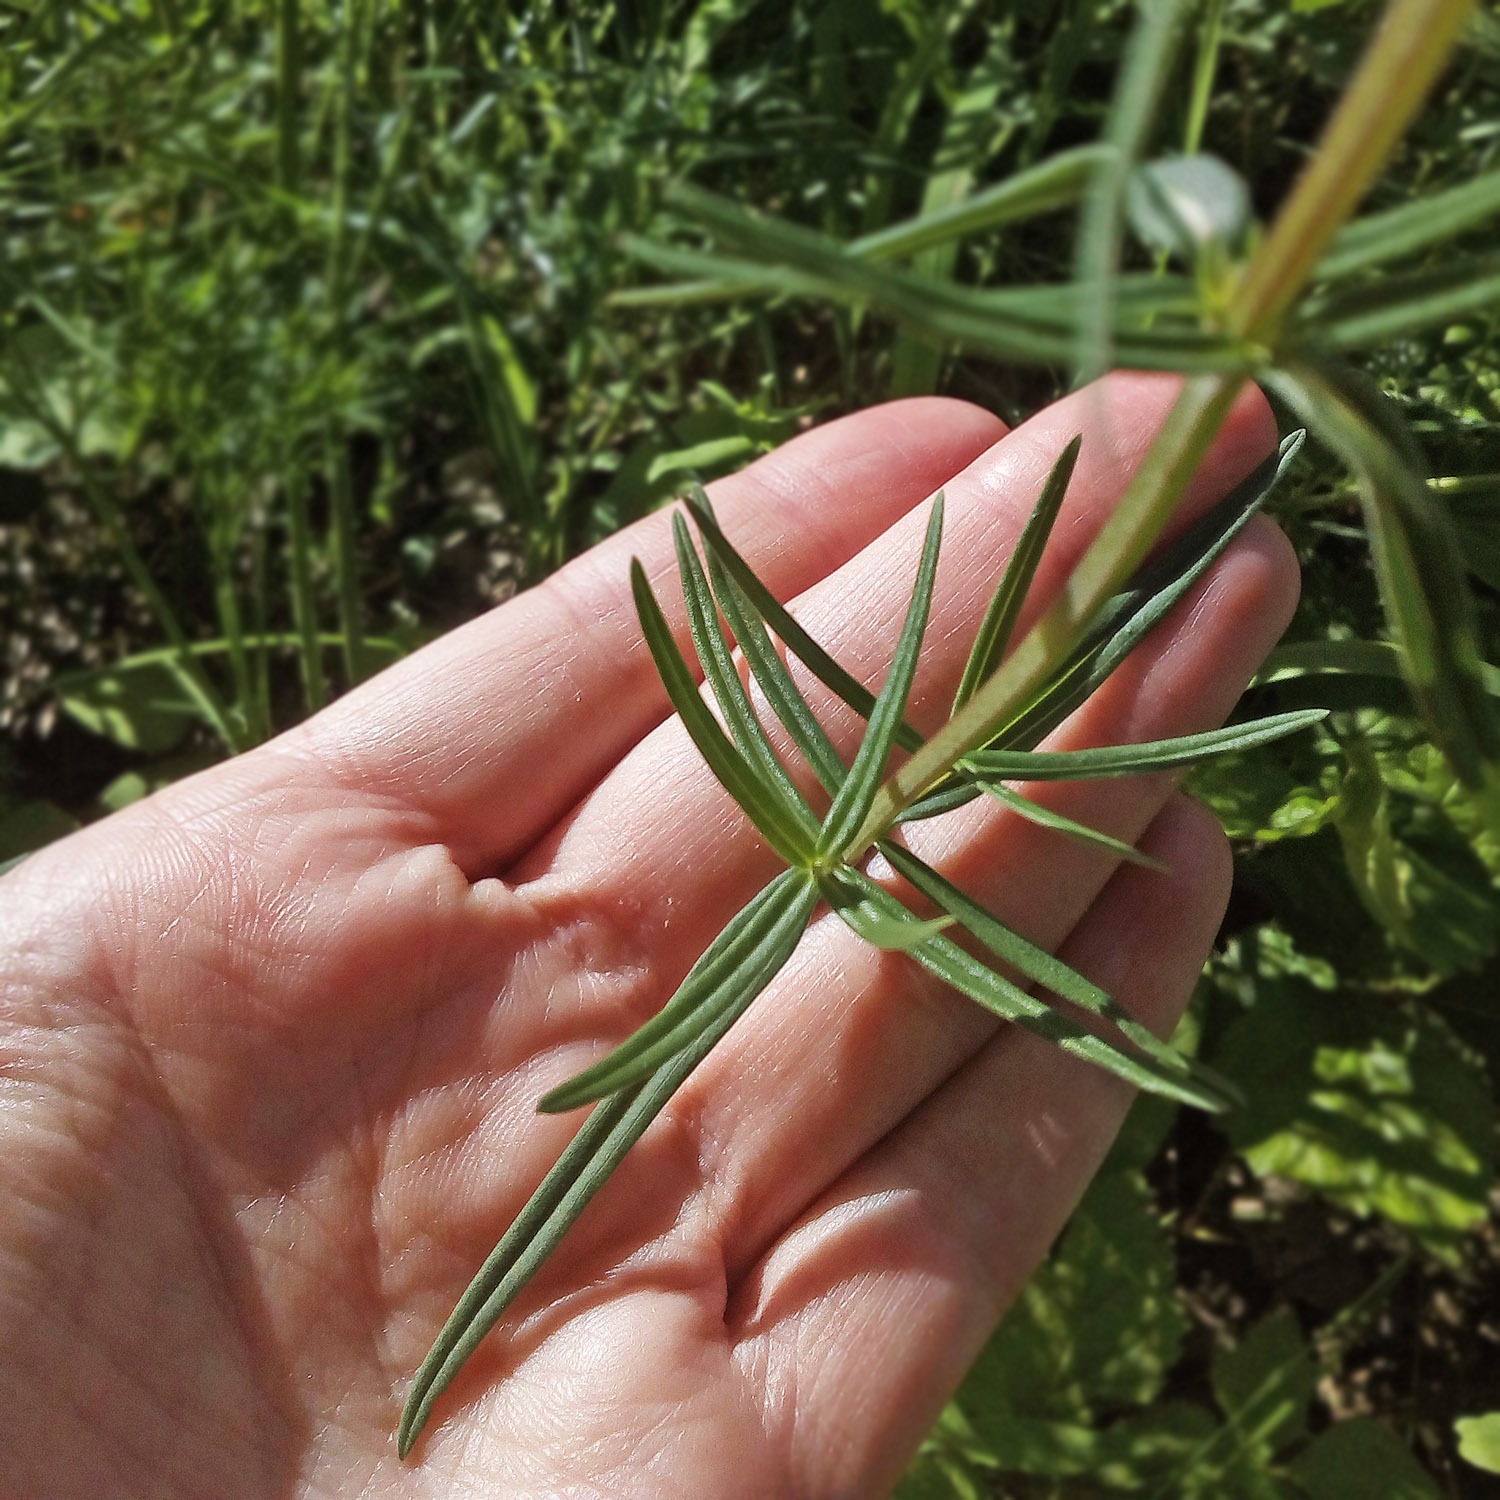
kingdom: Plantae
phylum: Tracheophyta
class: Magnoliopsida
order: Lamiales
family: Lamiaceae
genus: Dracocephalum
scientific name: Dracocephalum ruyschiana
